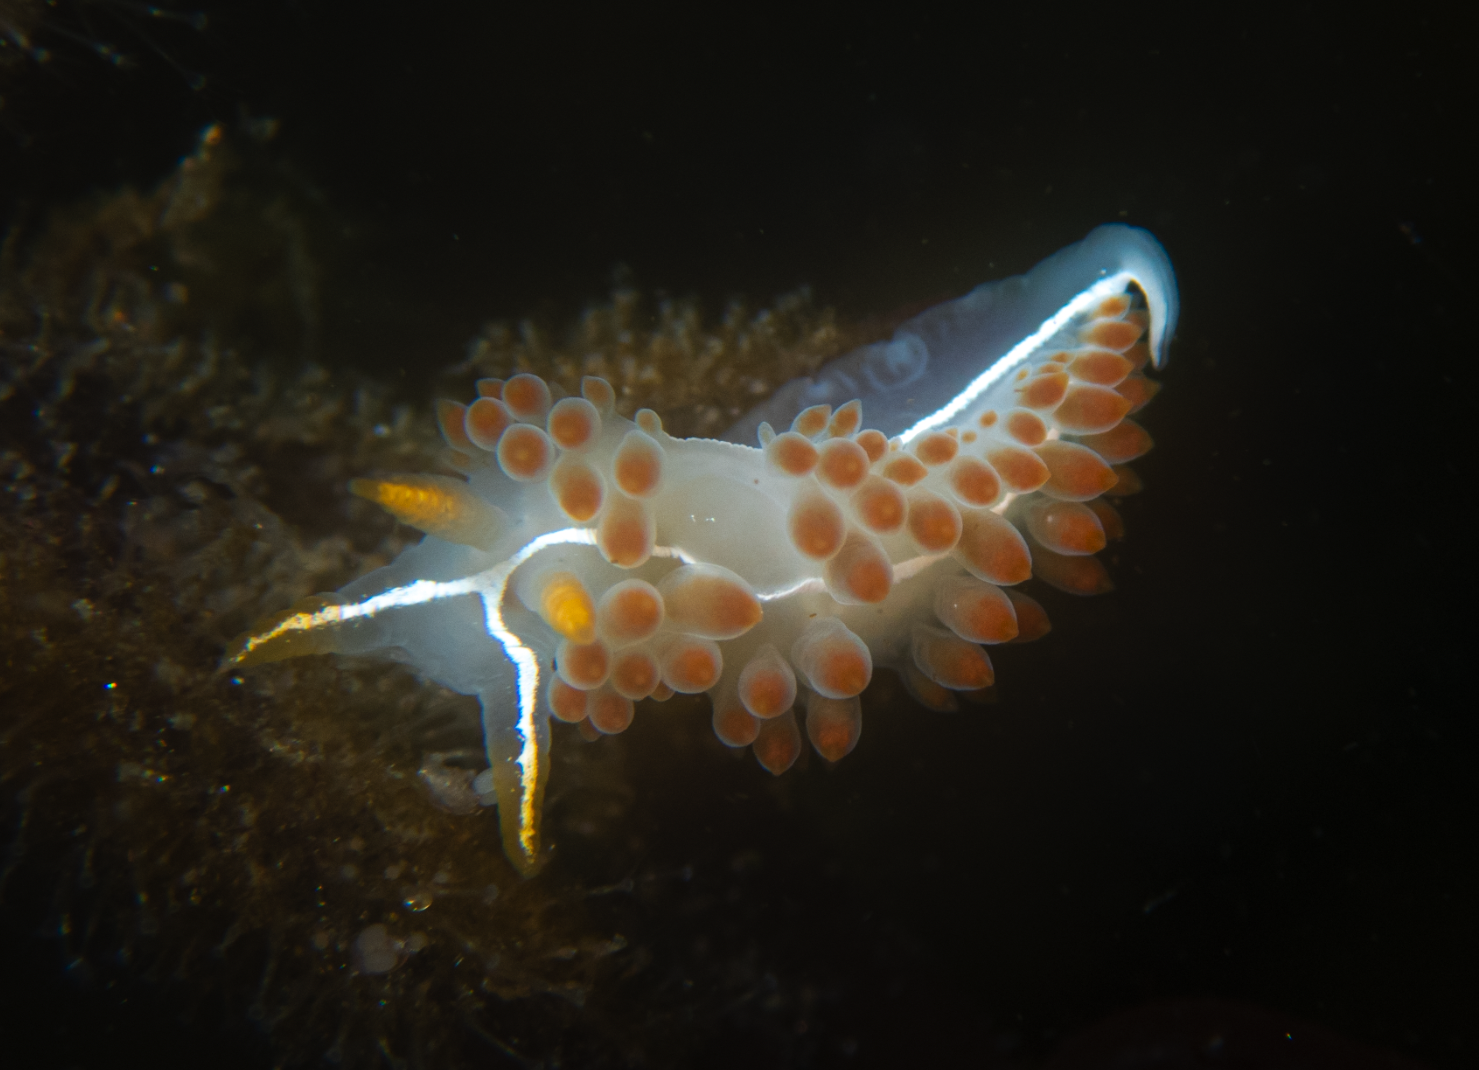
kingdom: Animalia
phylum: Mollusca
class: Gastropoda
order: Nudibranchia
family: Coryphellidae
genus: Coryphella
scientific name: Coryphella trilineata
